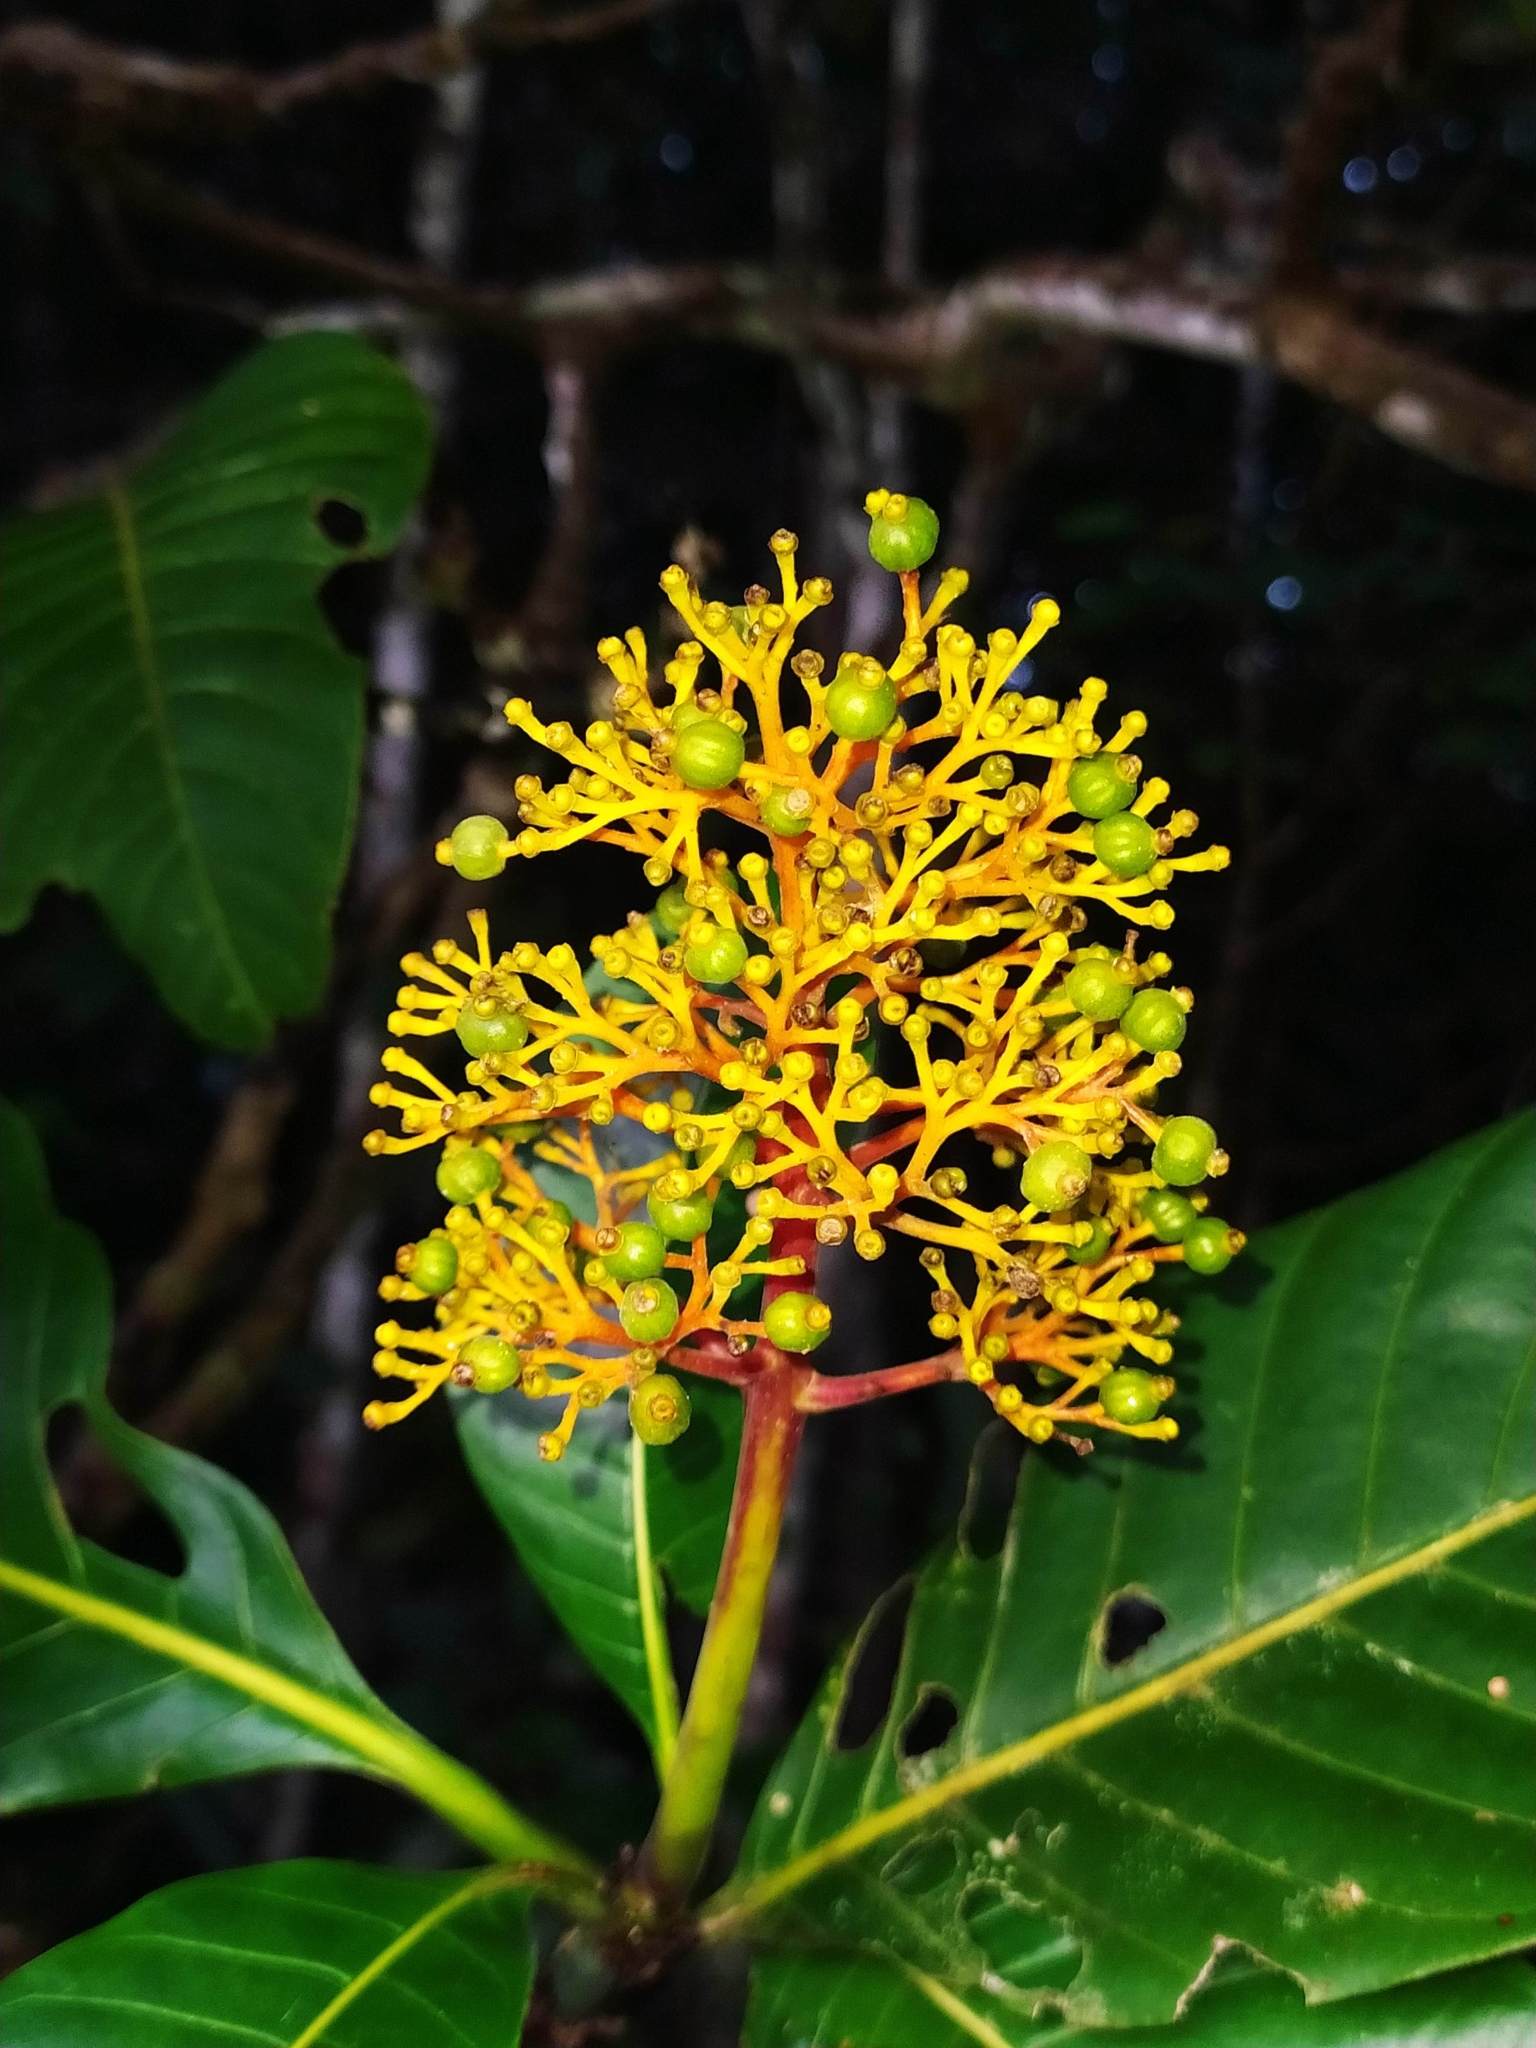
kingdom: Plantae
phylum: Tracheophyta
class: Magnoliopsida
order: Gentianales
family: Rubiaceae
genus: Palicourea
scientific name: Palicourea guianensis
